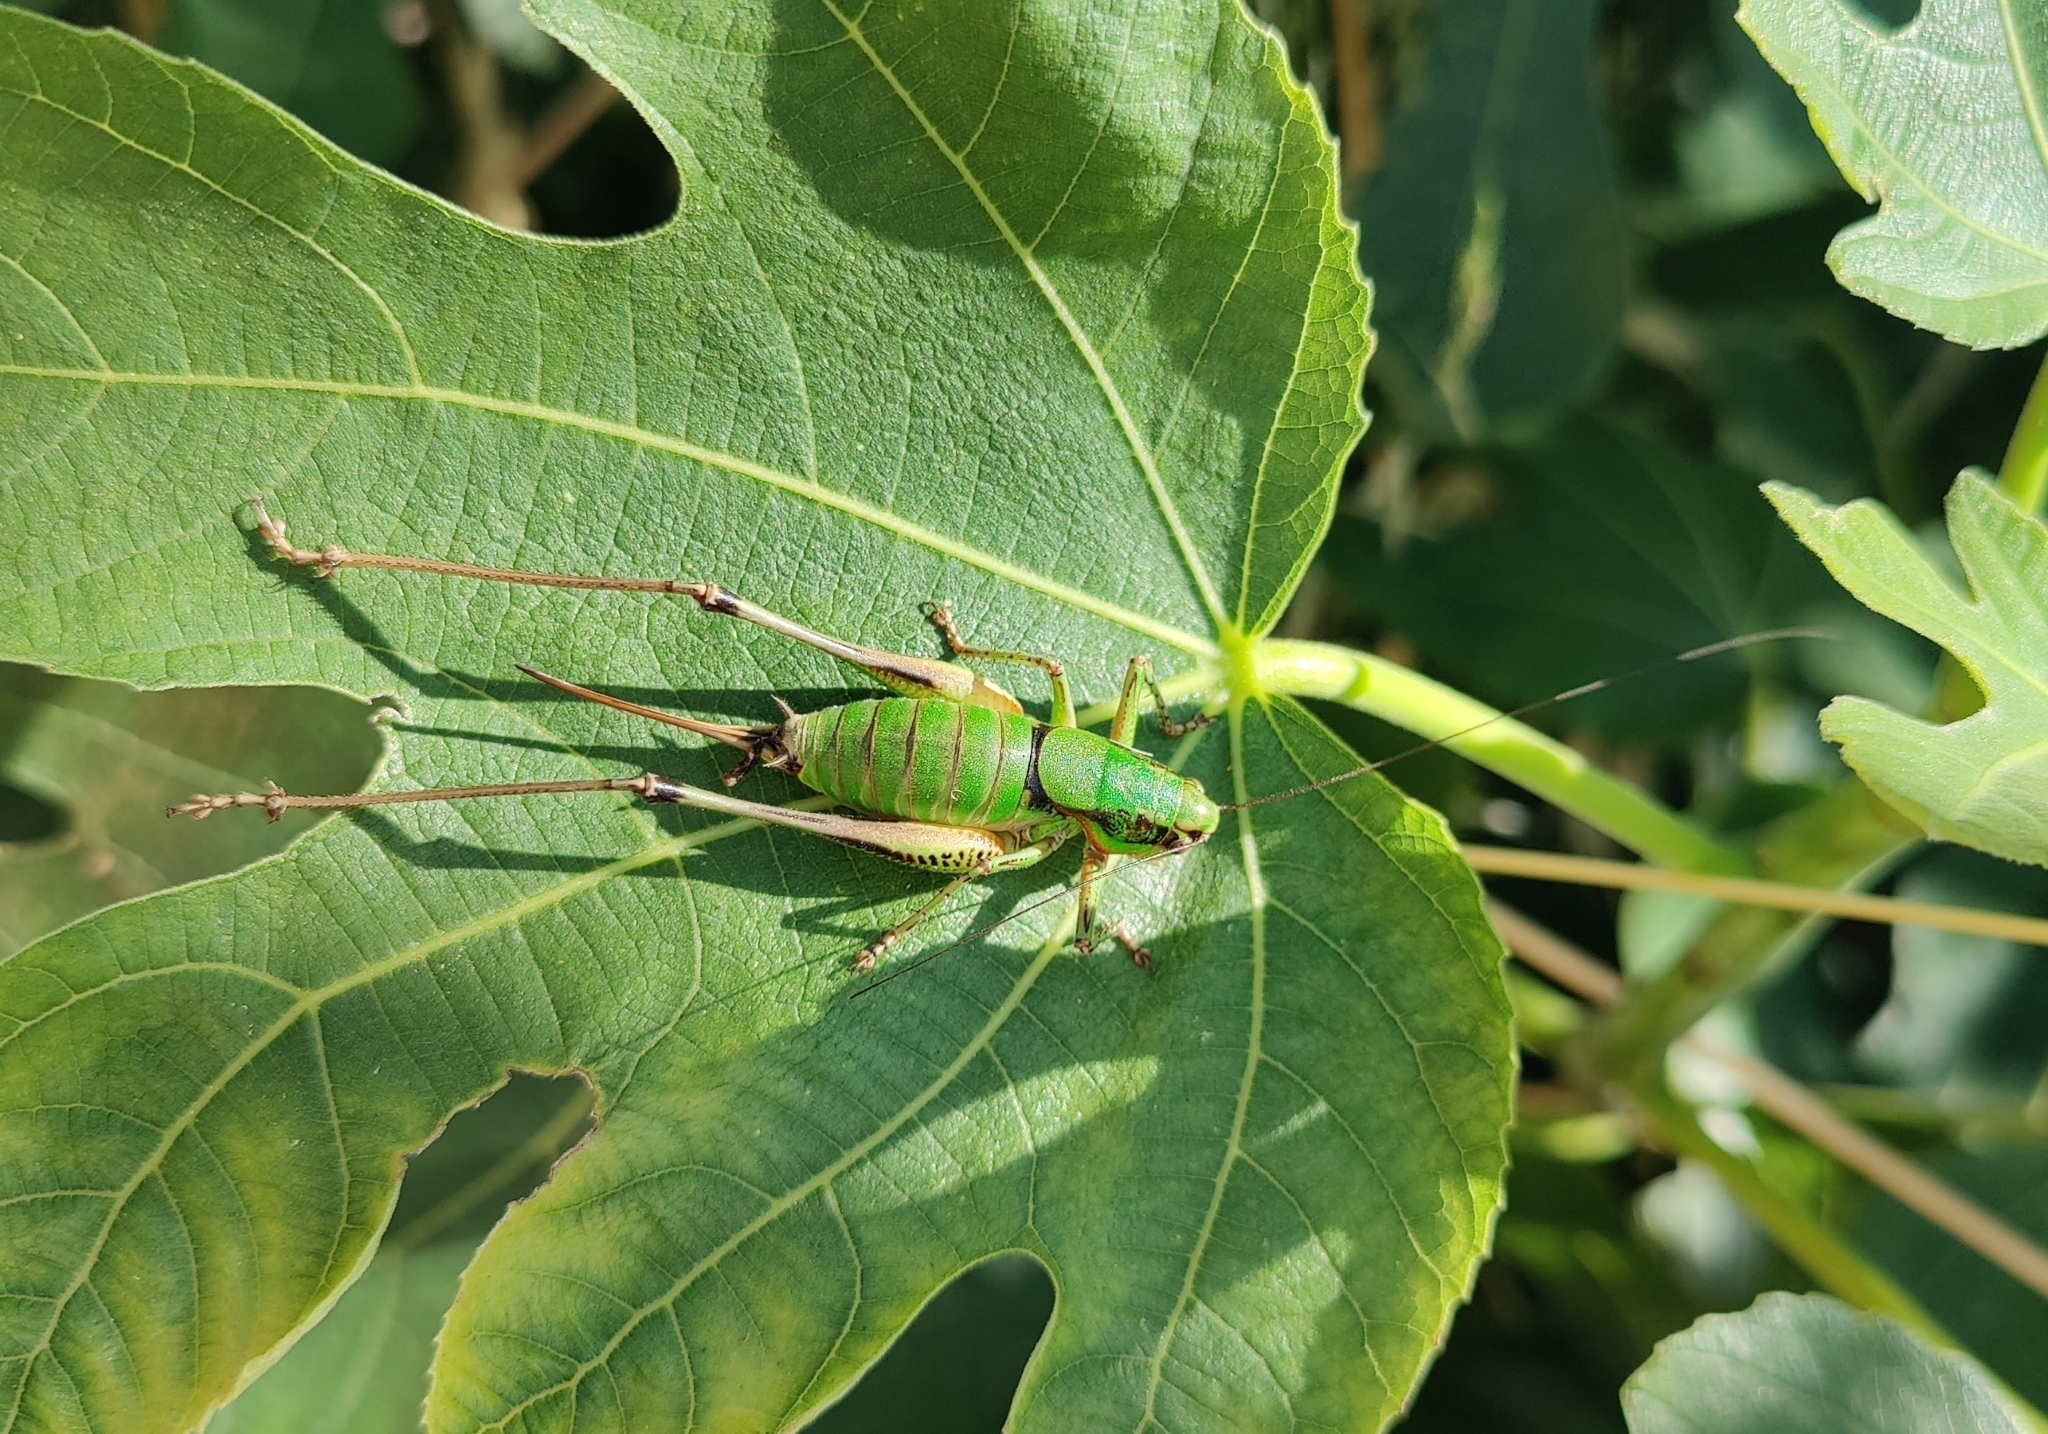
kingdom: Animalia
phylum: Arthropoda
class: Insecta
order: Orthoptera
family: Tettigoniidae
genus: Eupholidoptera
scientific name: Eupholidoptera schmidti
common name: Schmidt's marbled bush-cricket
